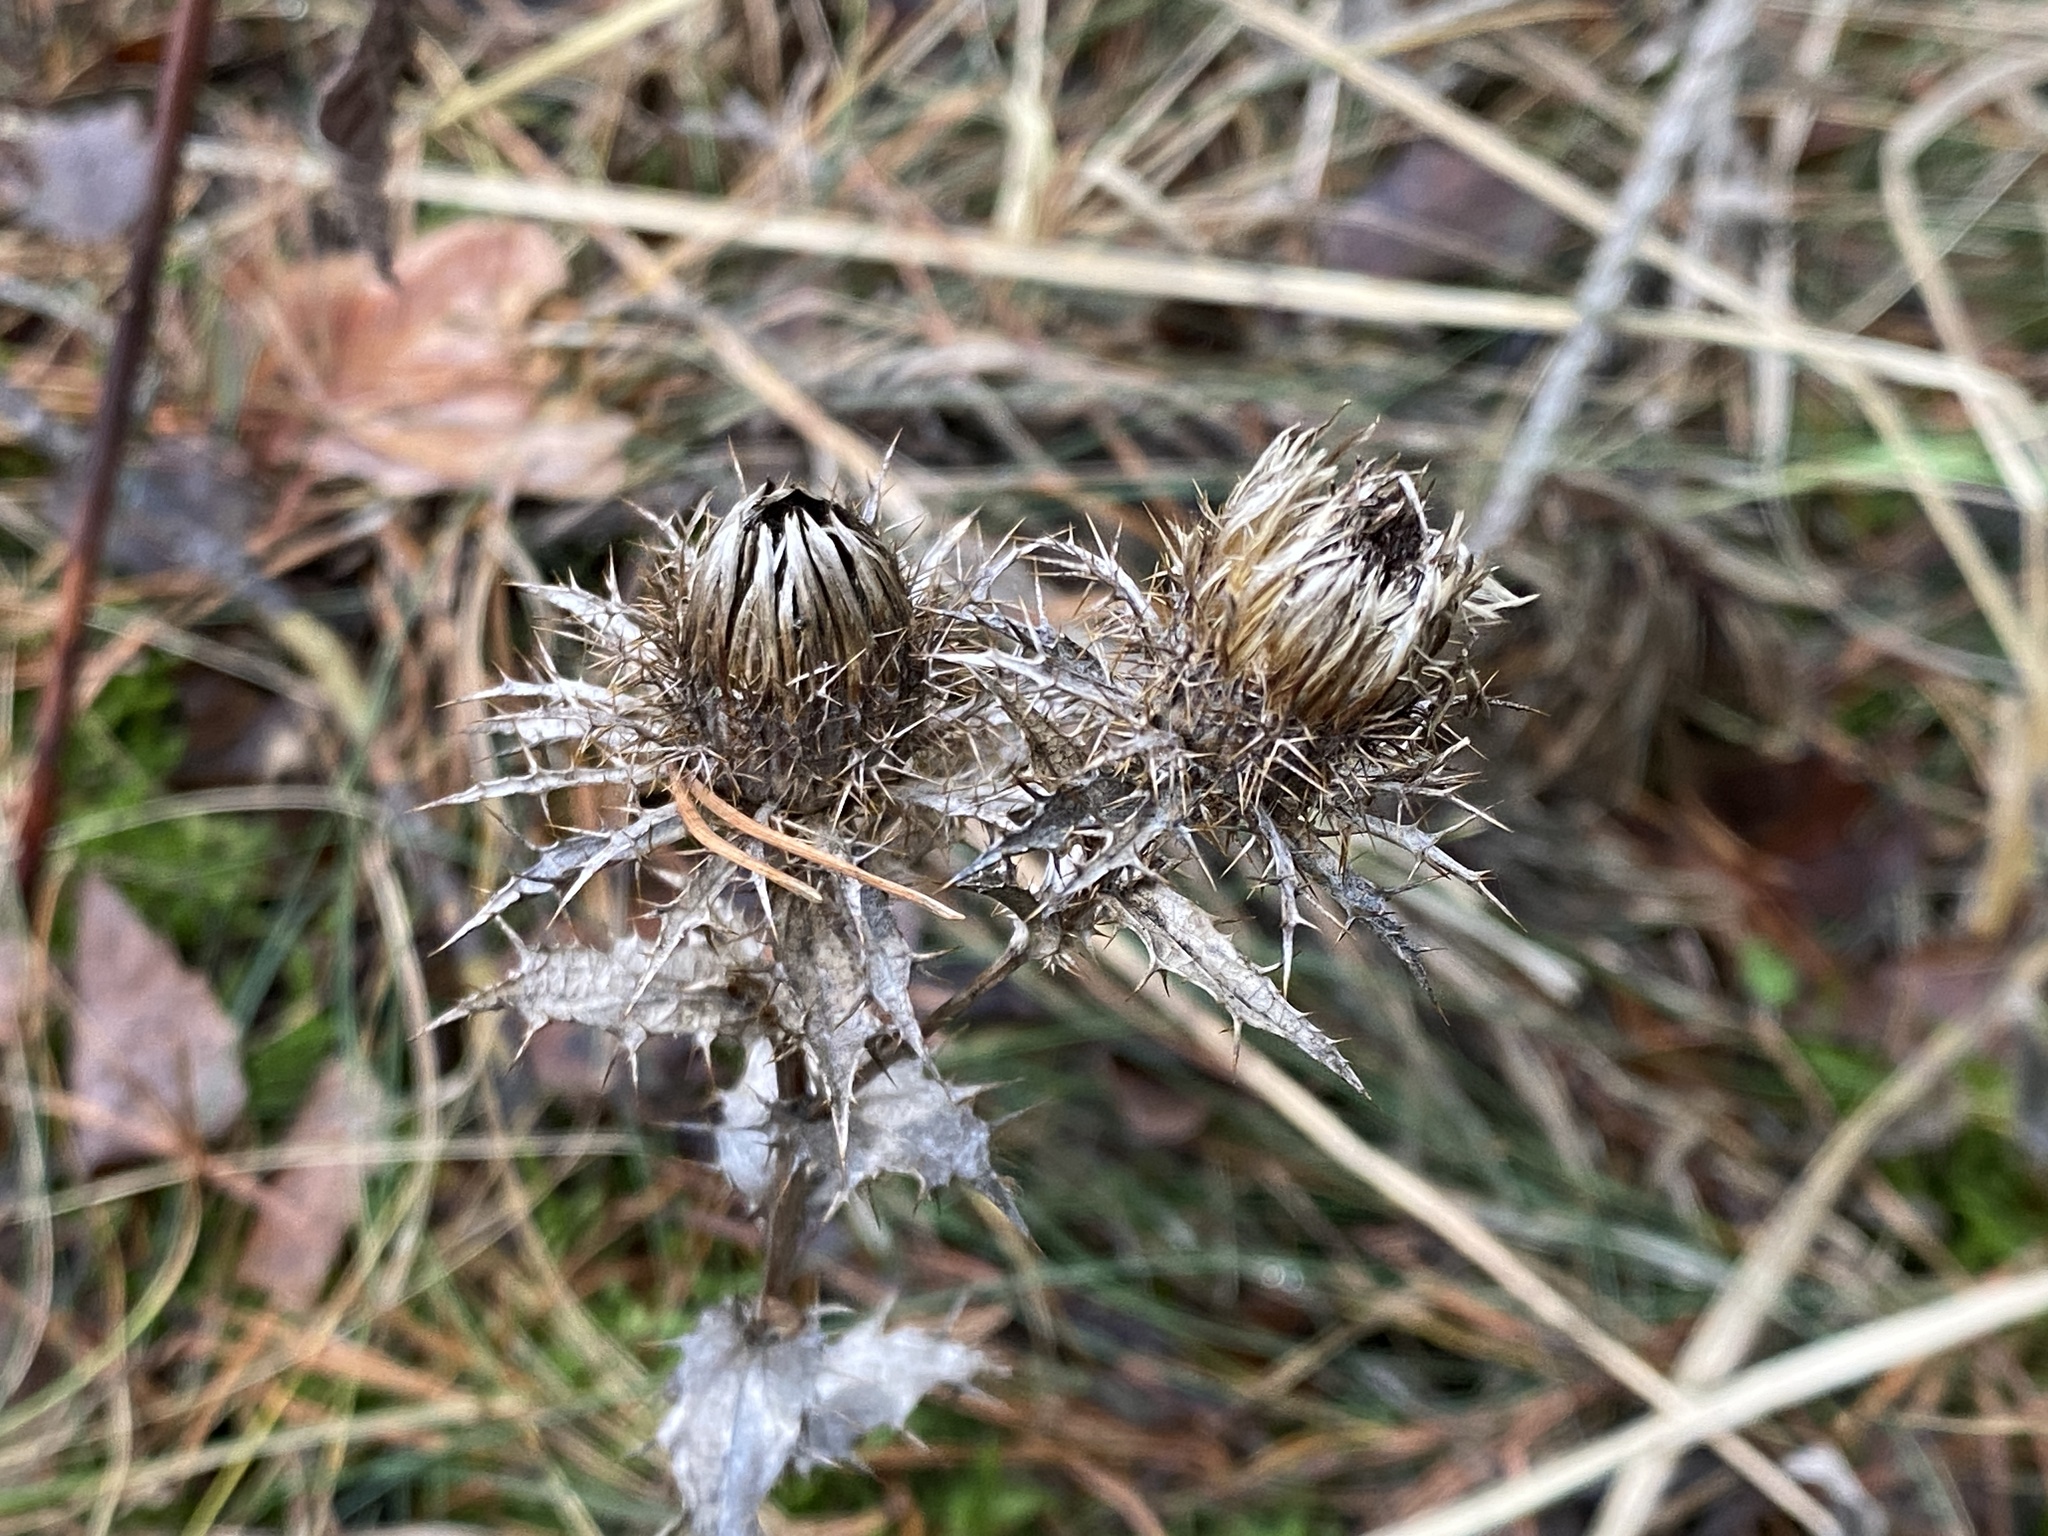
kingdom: Plantae
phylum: Tracheophyta
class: Magnoliopsida
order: Asterales
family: Asteraceae
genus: Carlina
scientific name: Carlina vulgaris
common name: Carline thistle
